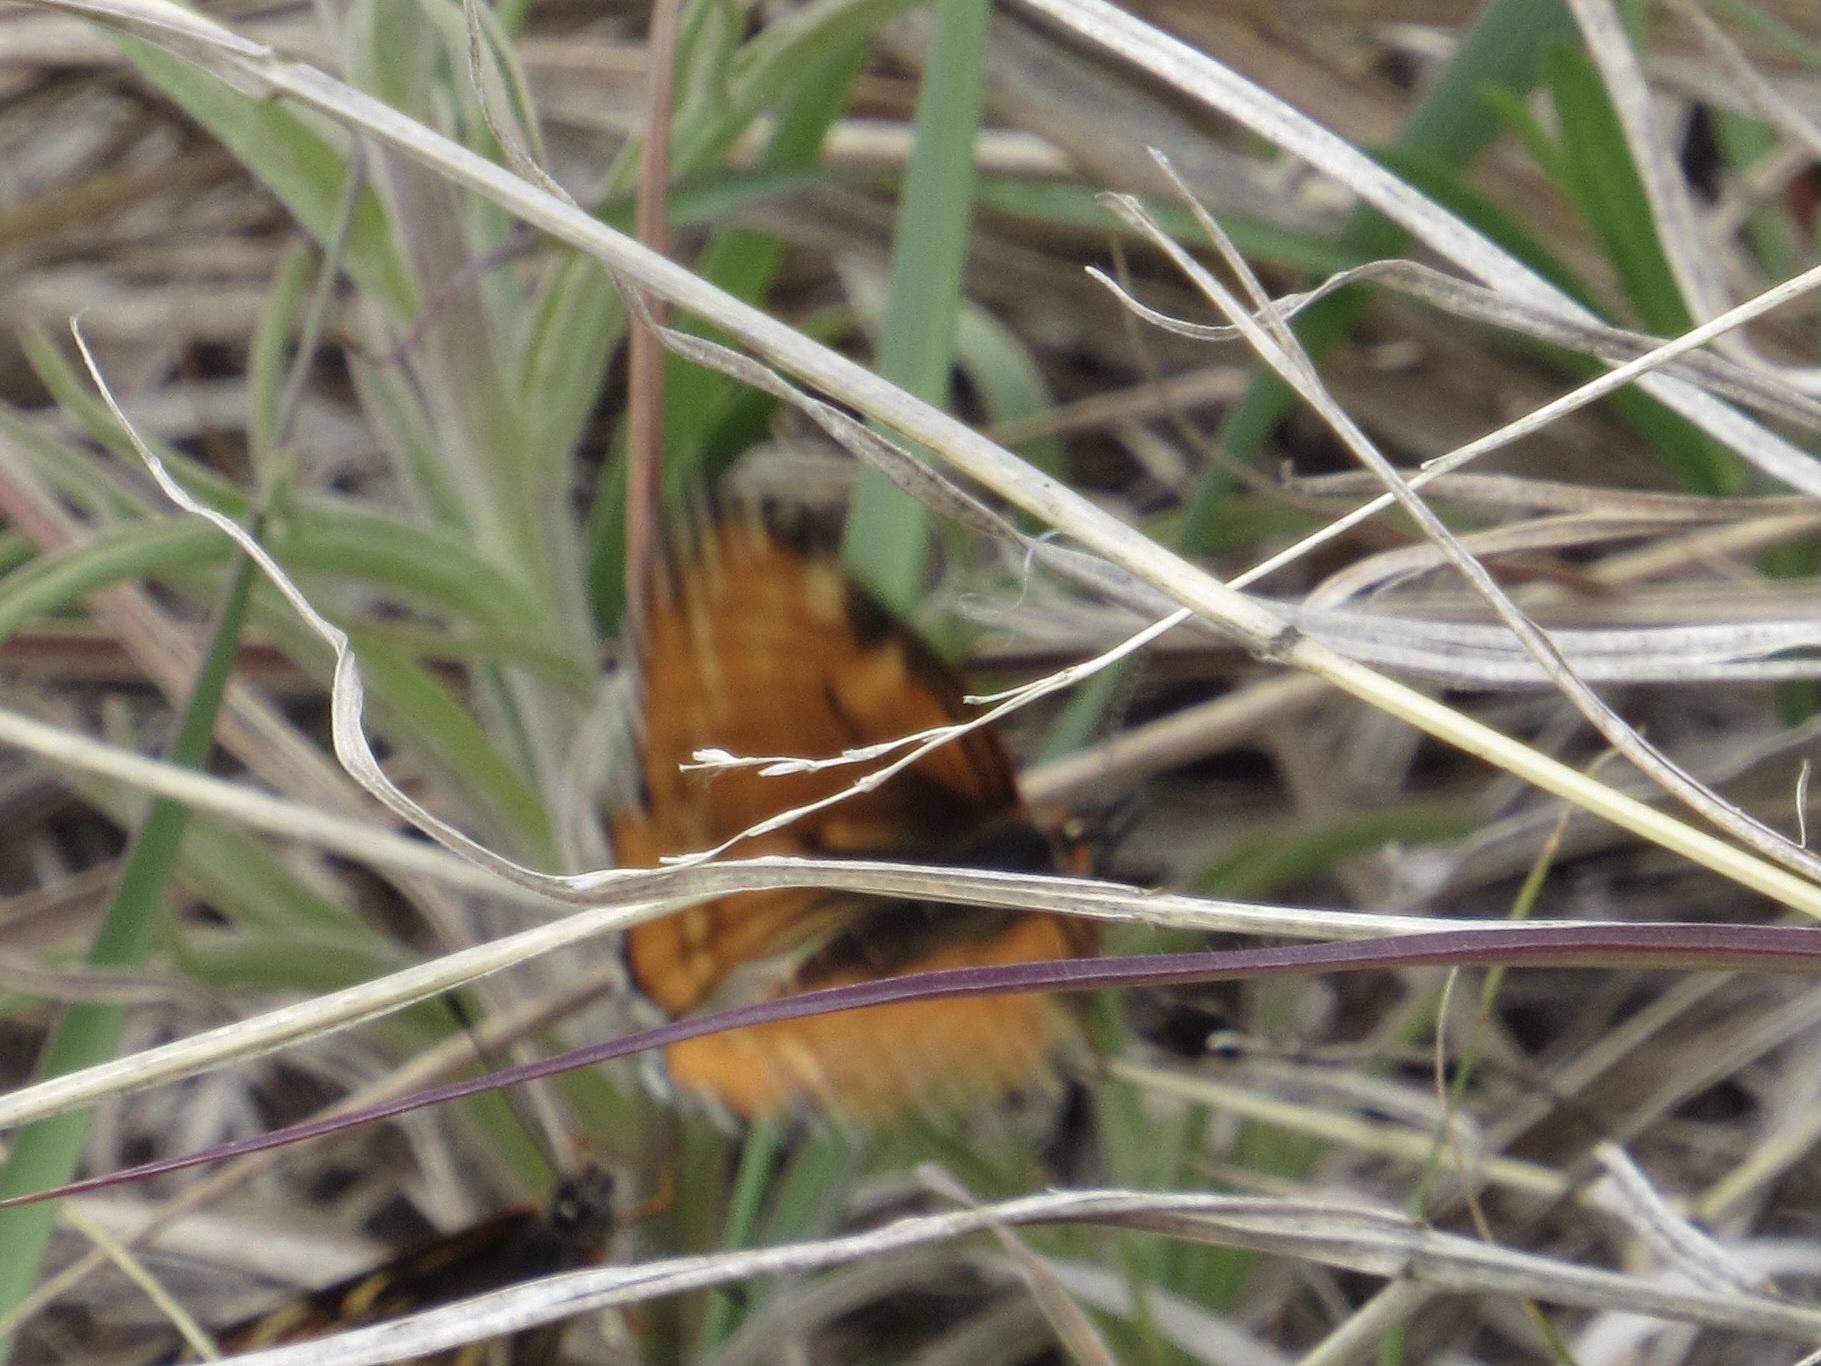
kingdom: Animalia
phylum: Arthropoda
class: Insecta
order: Lepidoptera
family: Nymphalidae
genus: Thessalia
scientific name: Thessalia leanira
